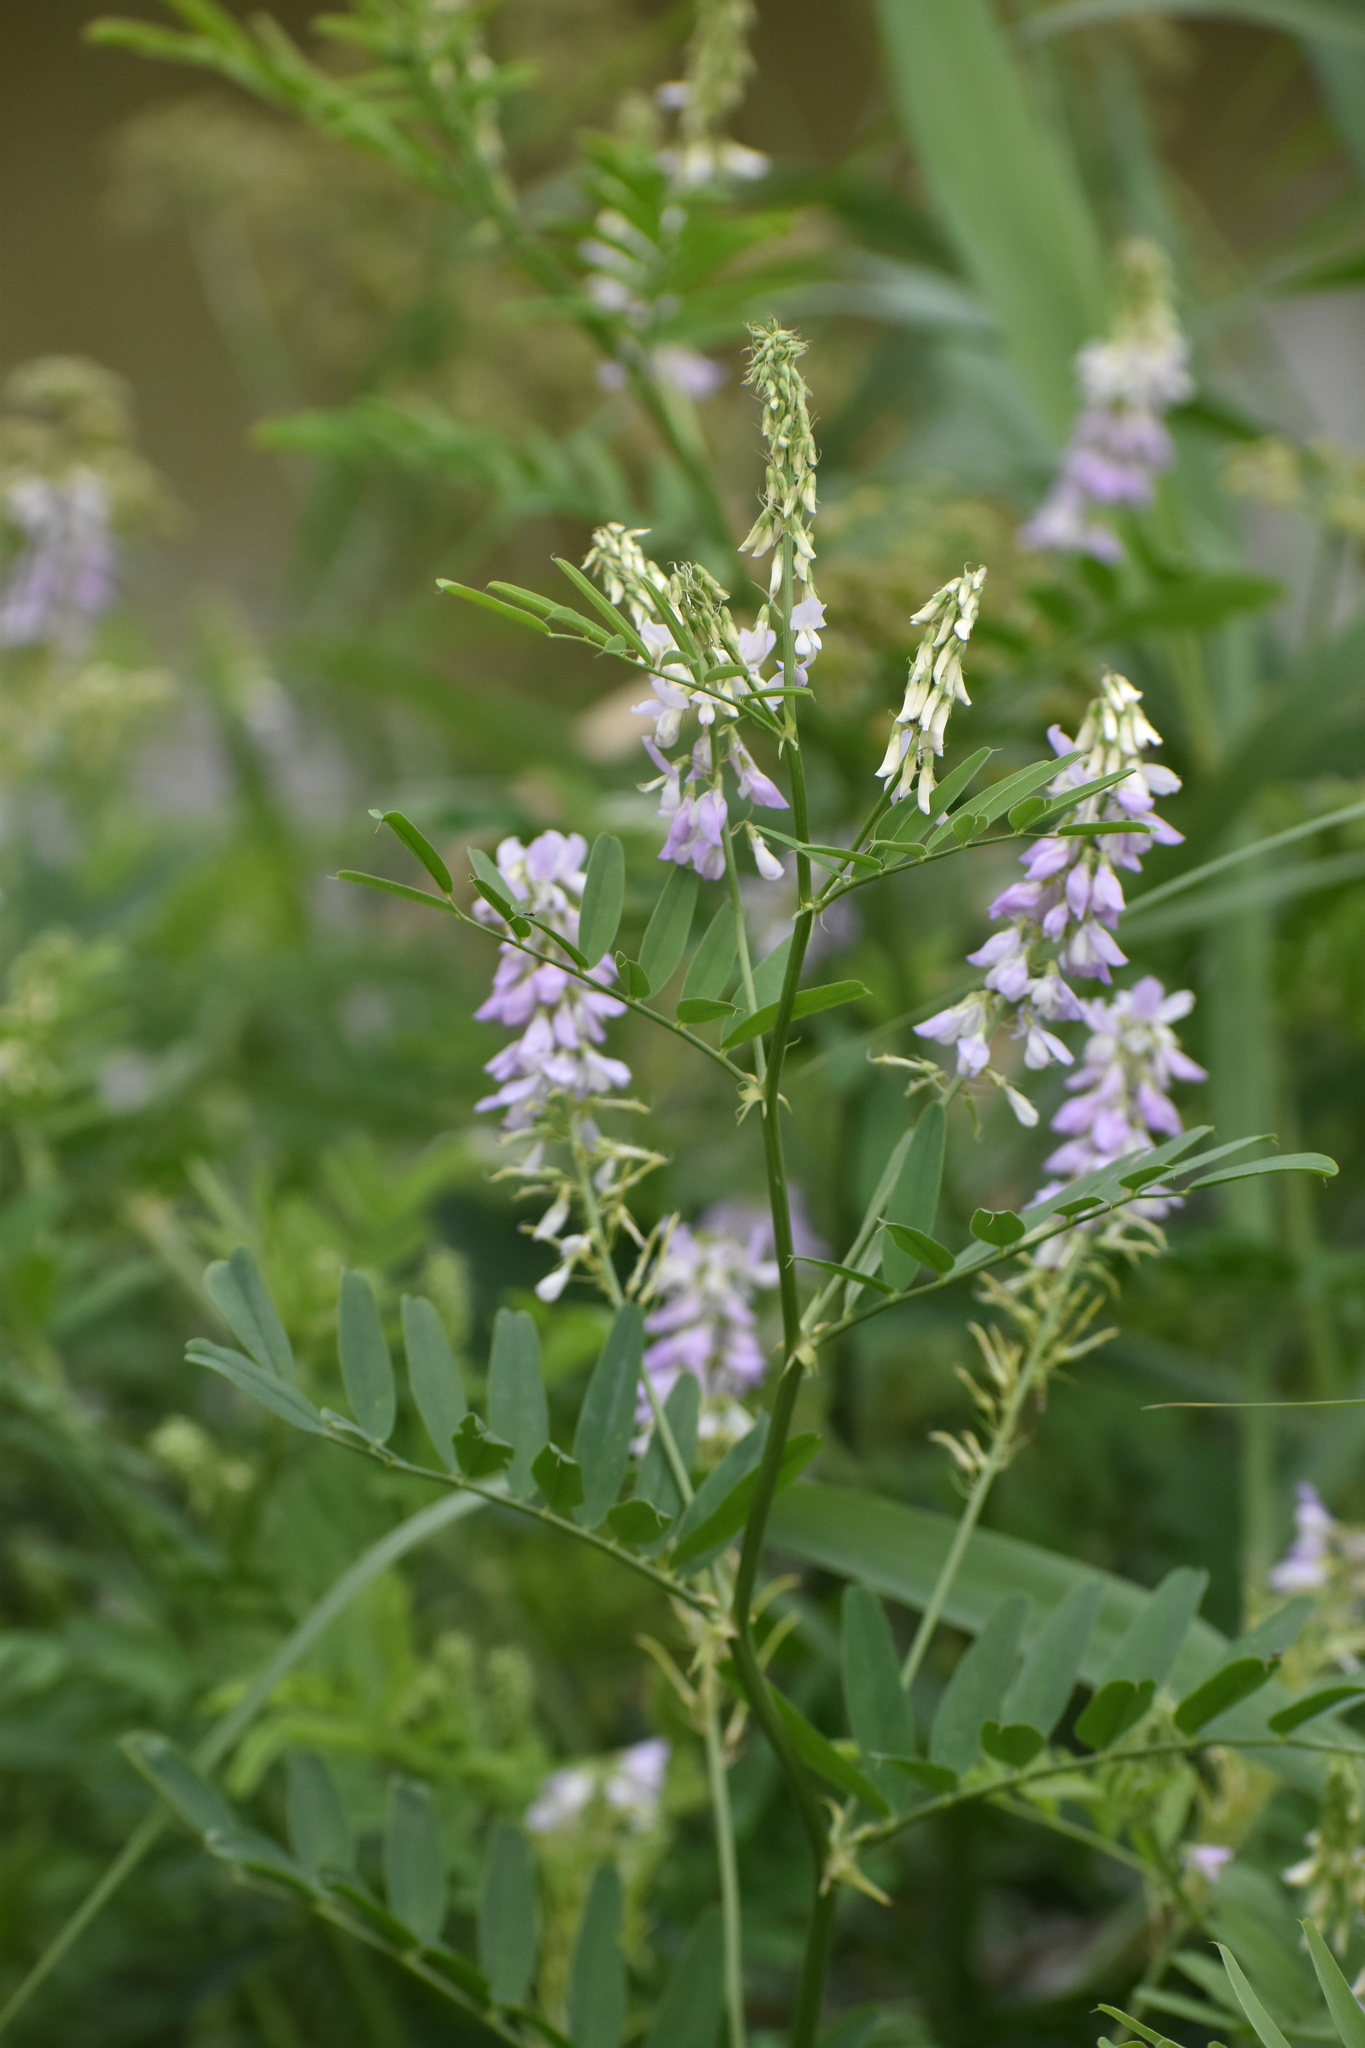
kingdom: Plantae
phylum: Tracheophyta
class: Magnoliopsida
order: Fabales
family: Fabaceae
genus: Galega
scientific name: Galega officinalis
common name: Goat's-rue
